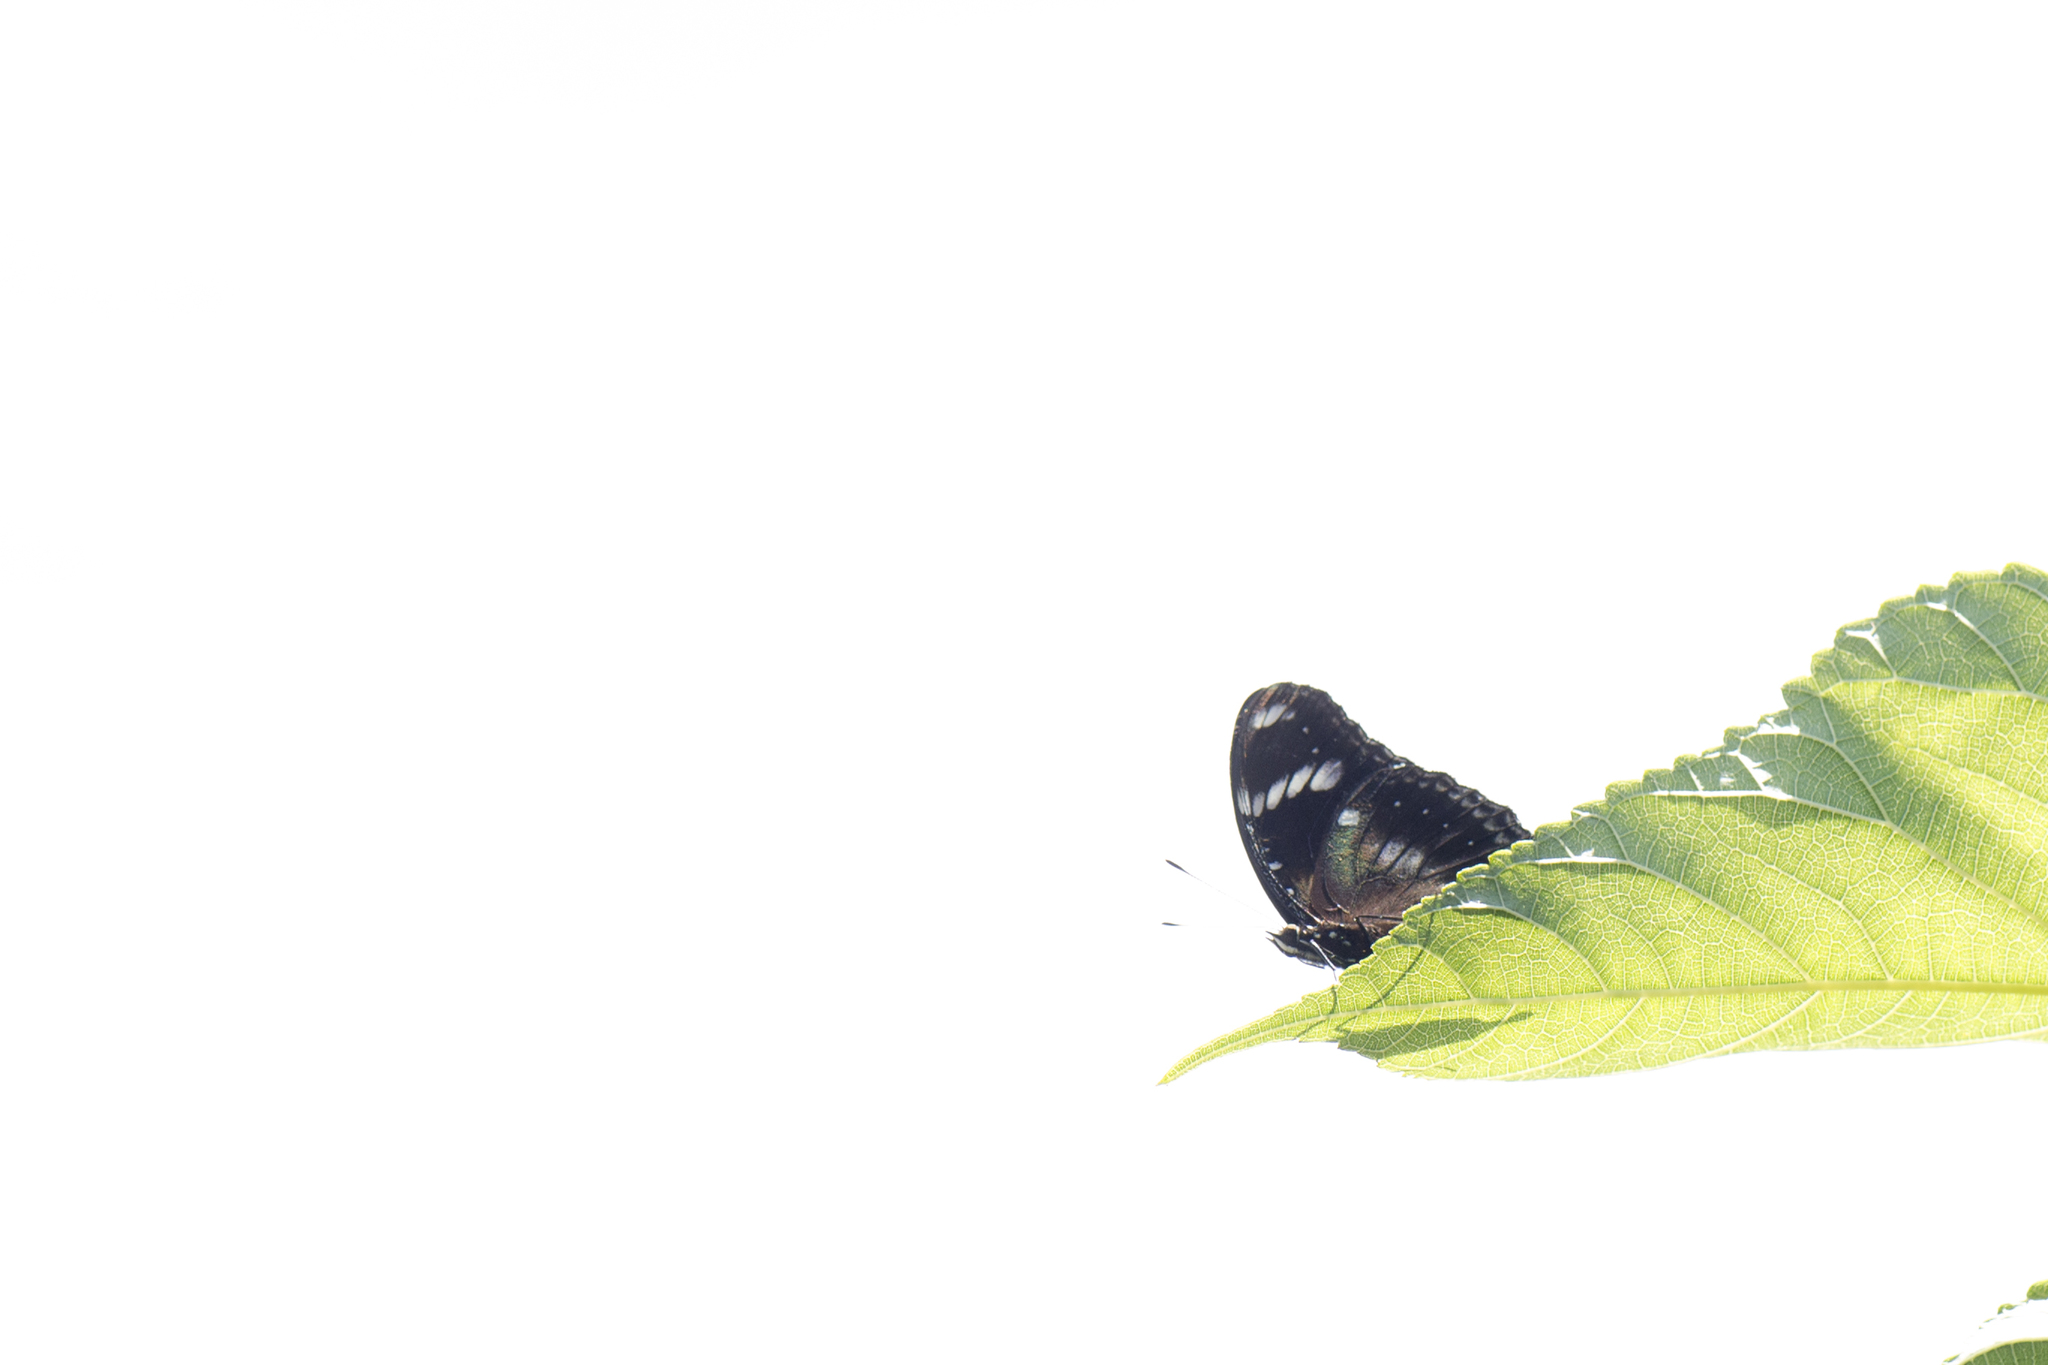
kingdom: Animalia
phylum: Arthropoda
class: Insecta
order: Lepidoptera
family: Nymphalidae
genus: Hypolimnas
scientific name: Hypolimnas bolina
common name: Great eggfly
